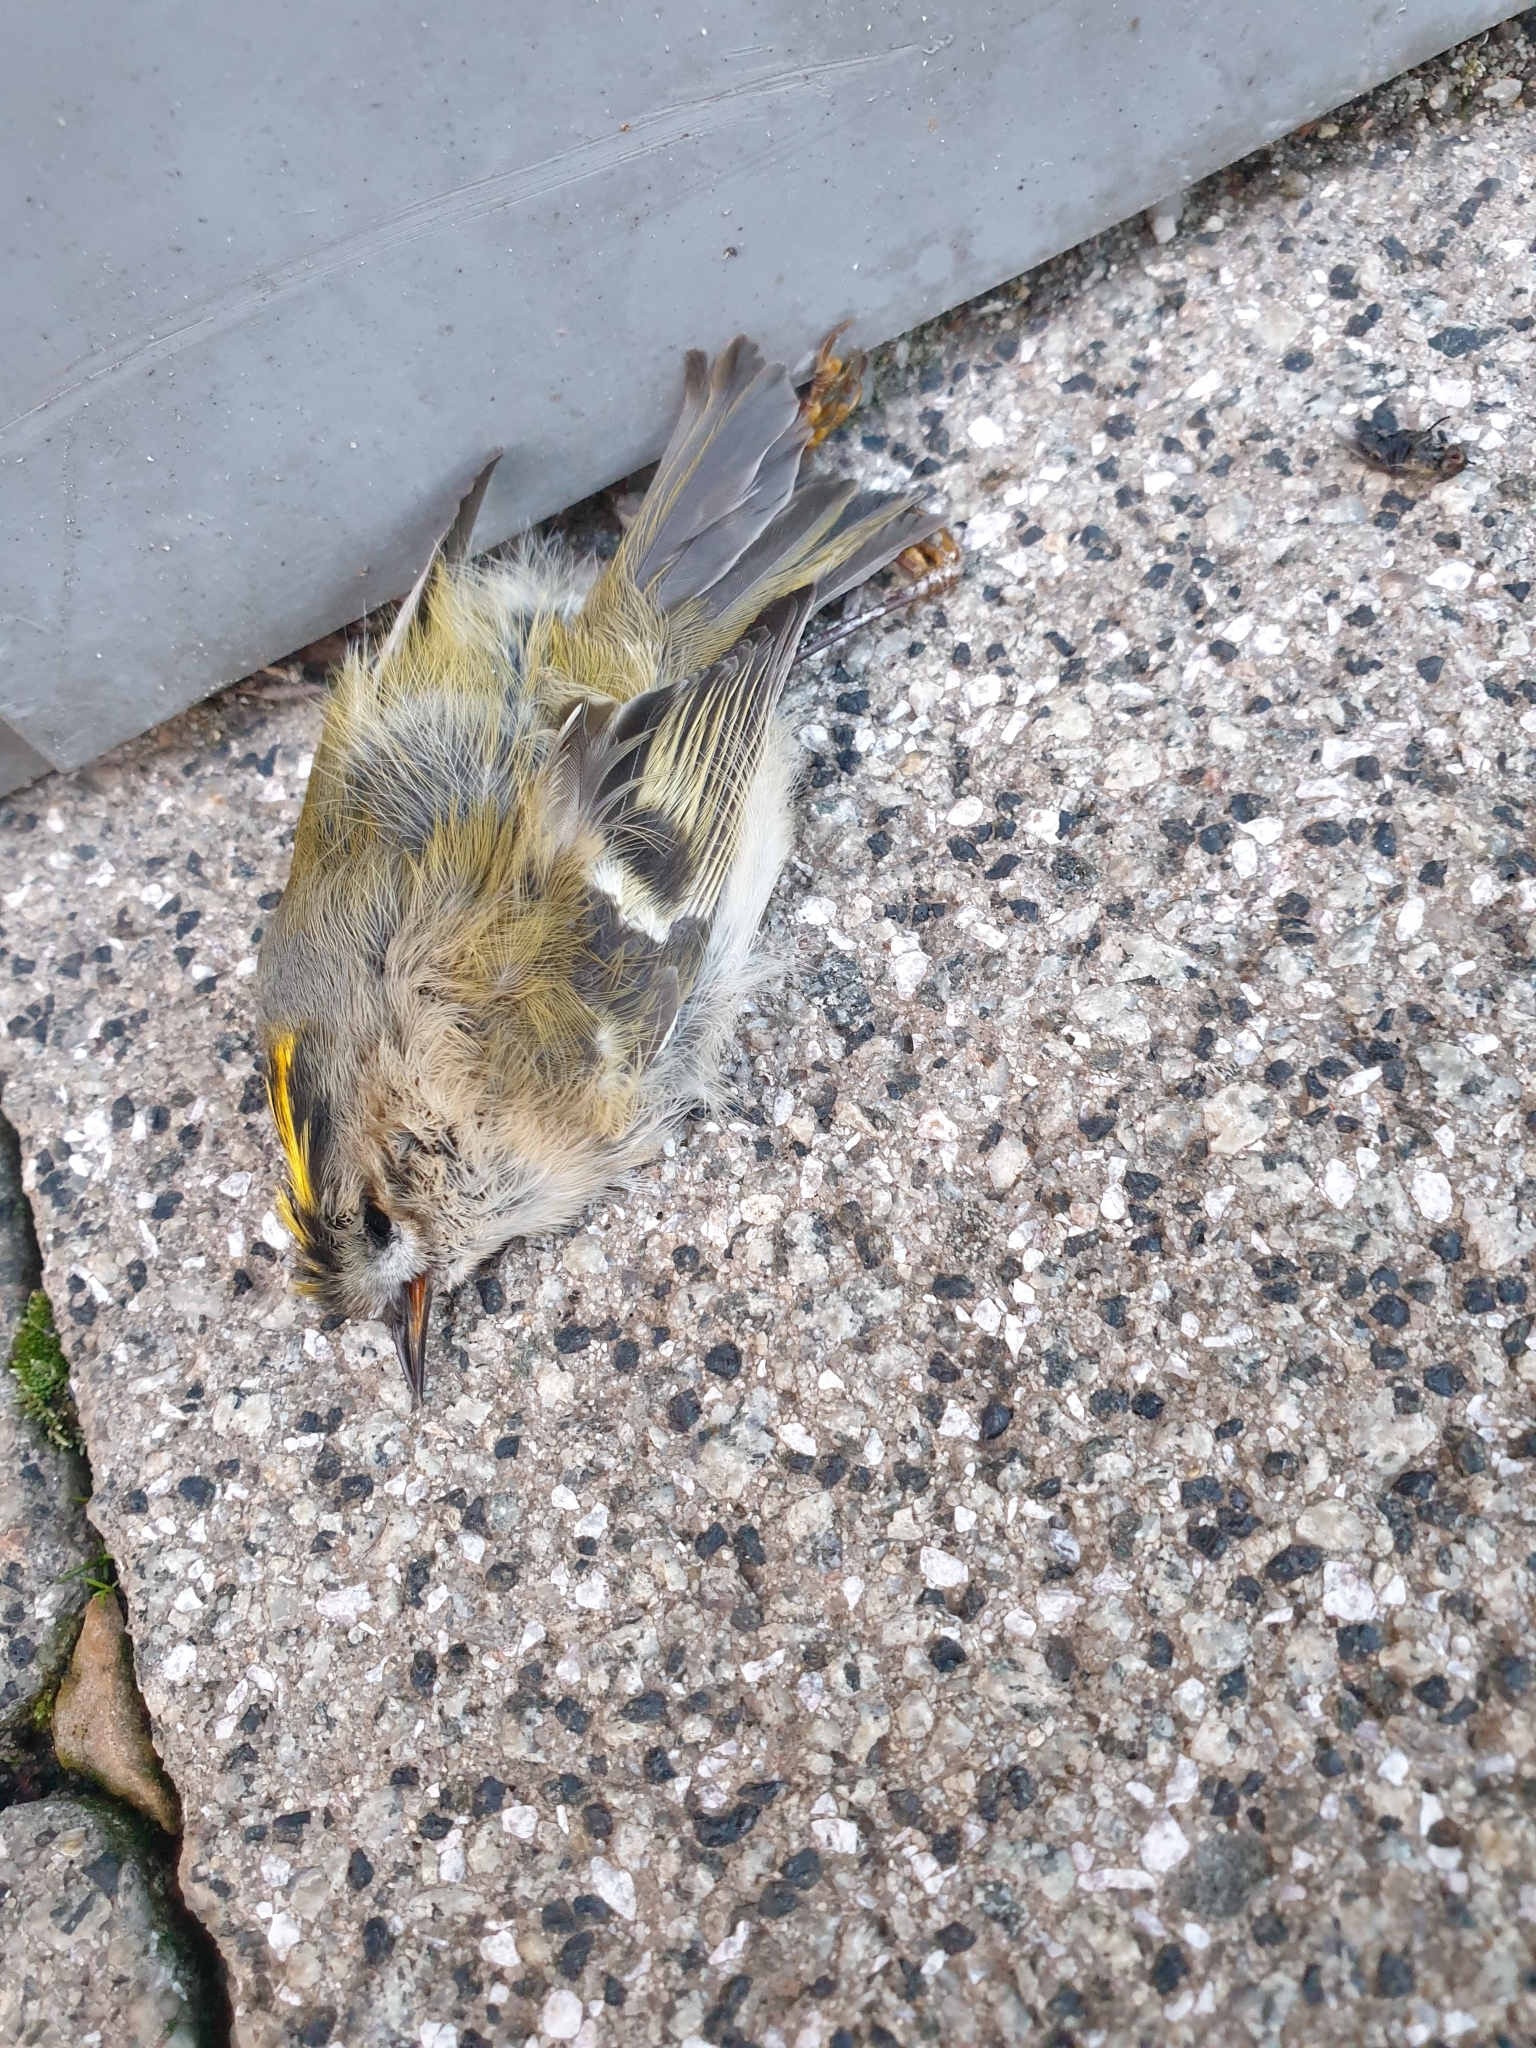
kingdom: Animalia
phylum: Chordata
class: Aves
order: Passeriformes
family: Regulidae
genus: Regulus
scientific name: Regulus regulus
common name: Goldcrest
